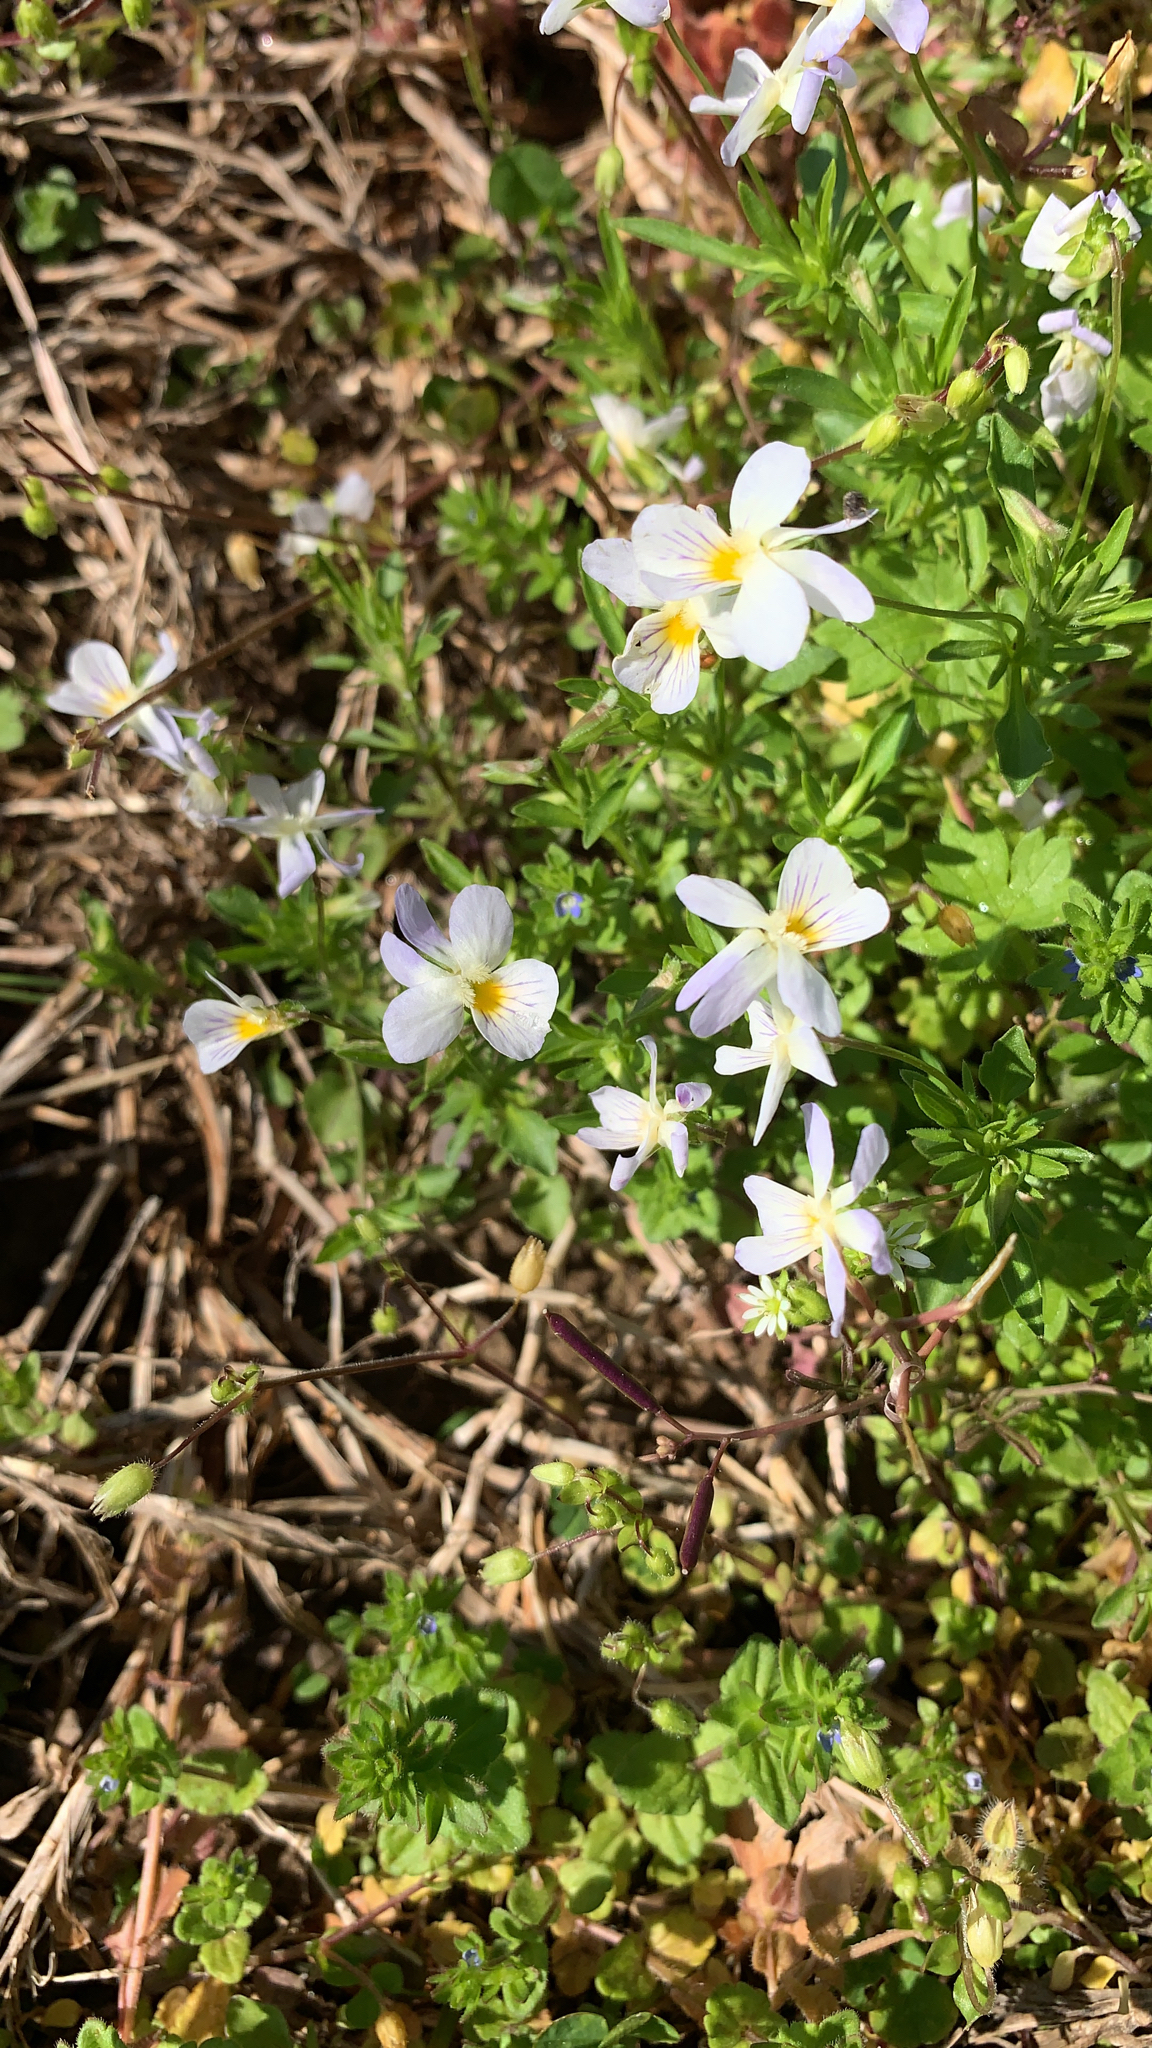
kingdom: Plantae
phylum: Tracheophyta
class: Magnoliopsida
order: Malpighiales
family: Violaceae
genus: Viola
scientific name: Viola rafinesquei
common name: American field pansy
